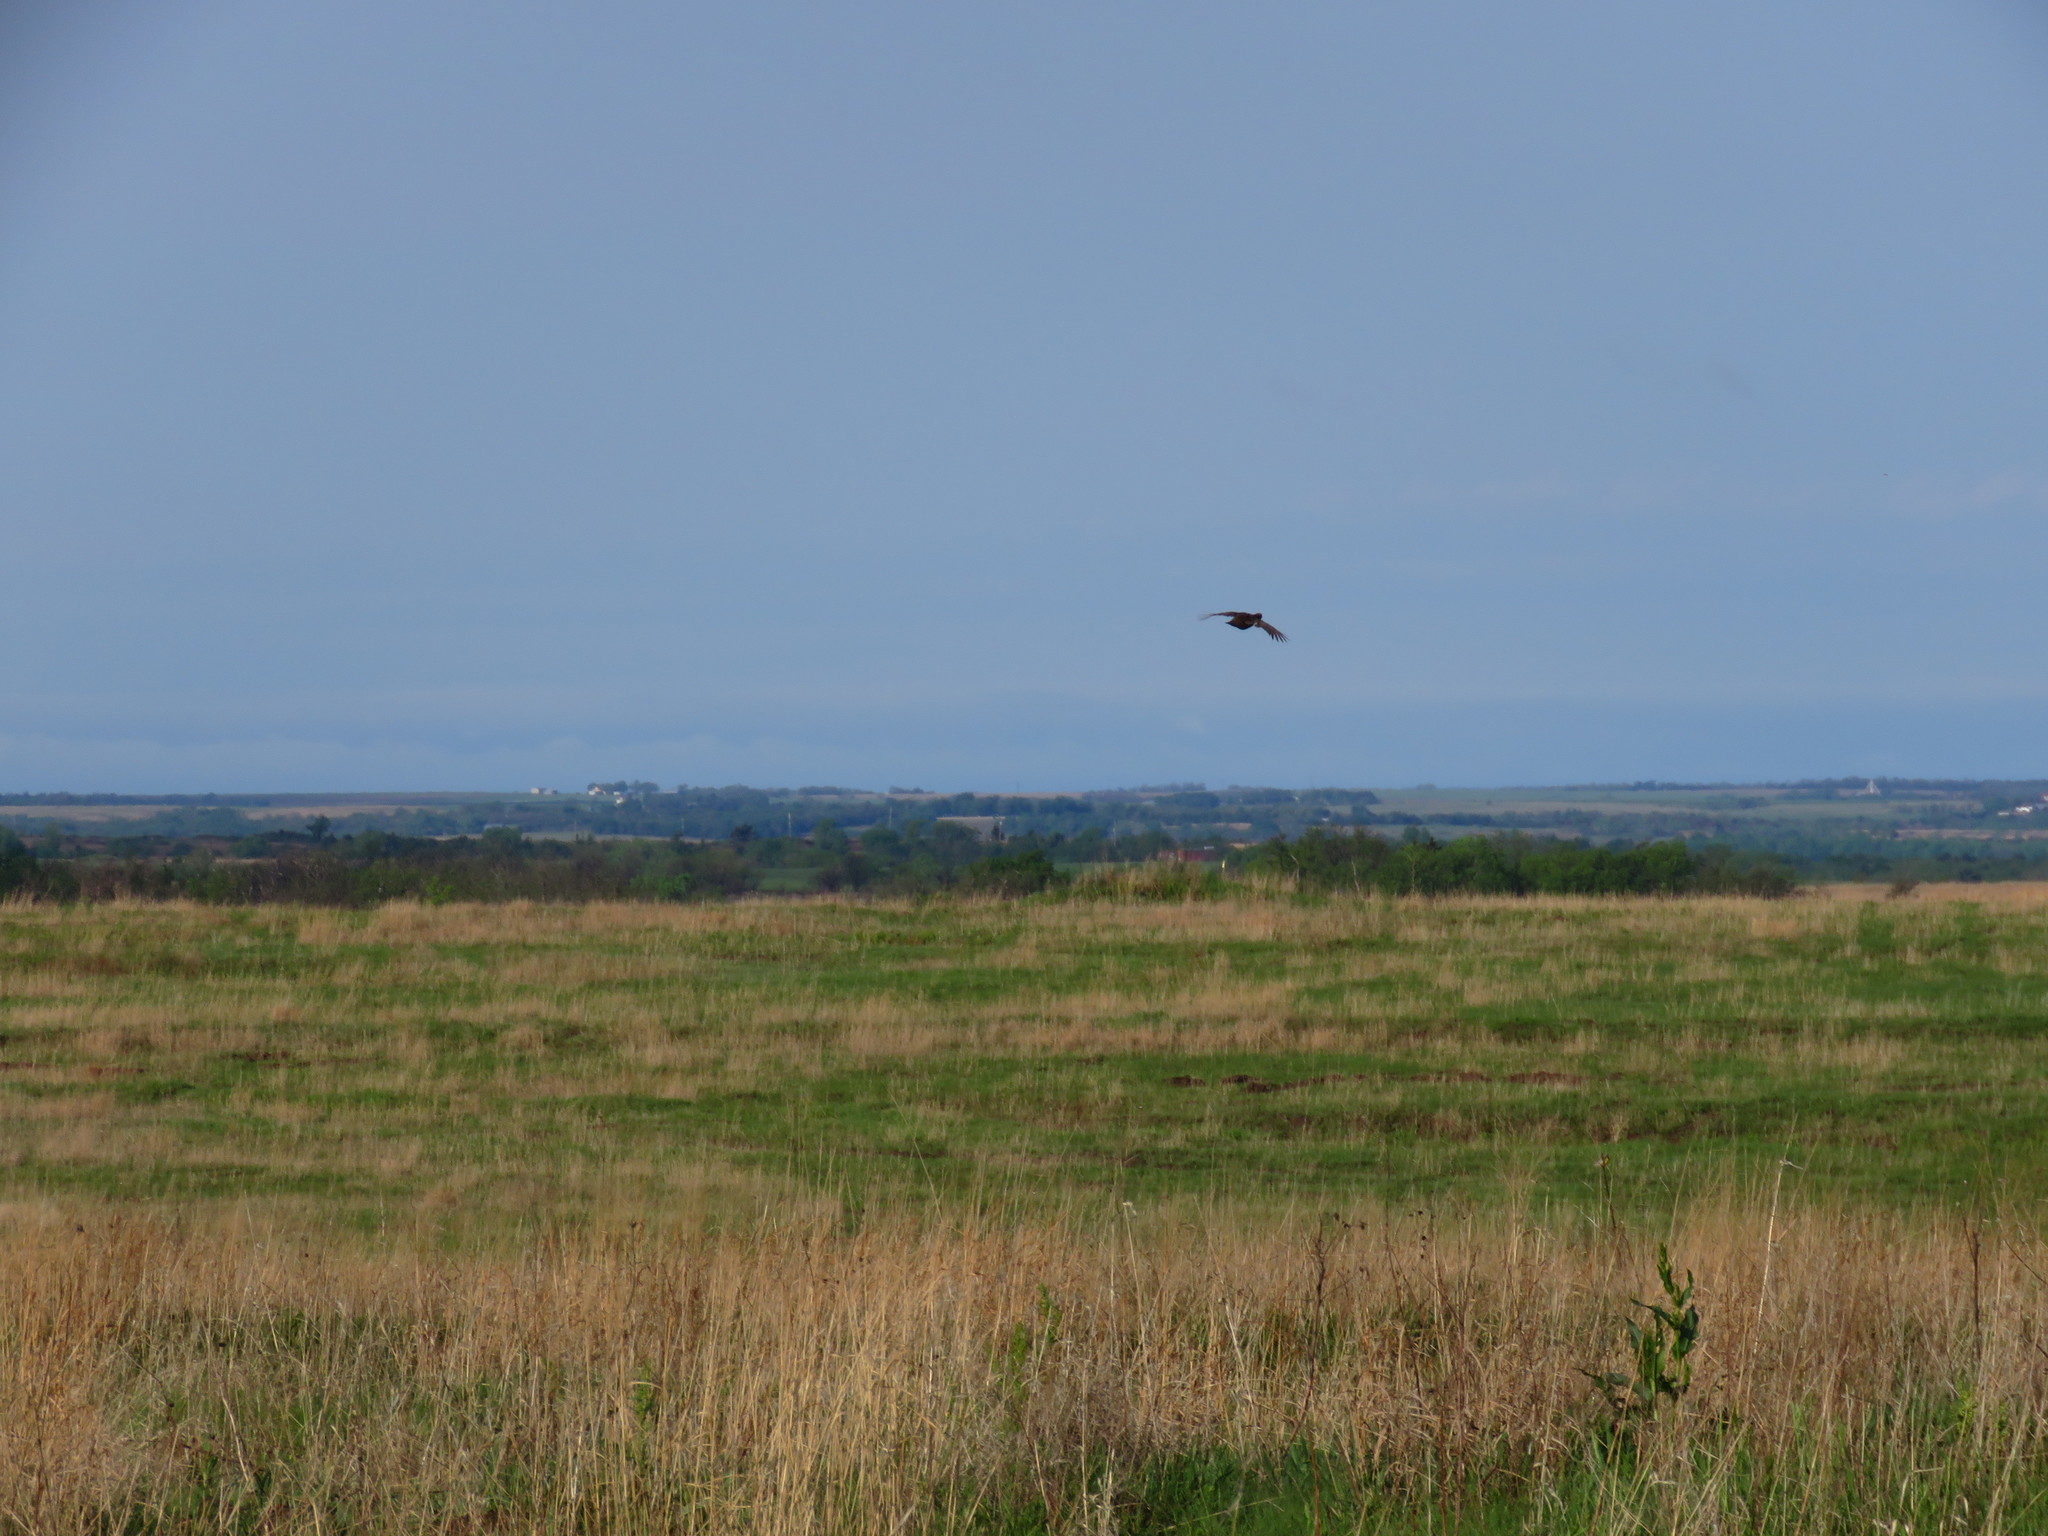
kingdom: Animalia
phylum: Chordata
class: Aves
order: Galliformes
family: Phasianidae
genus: Tympanuchus
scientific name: Tympanuchus cupido
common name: Greater prairie chicken
